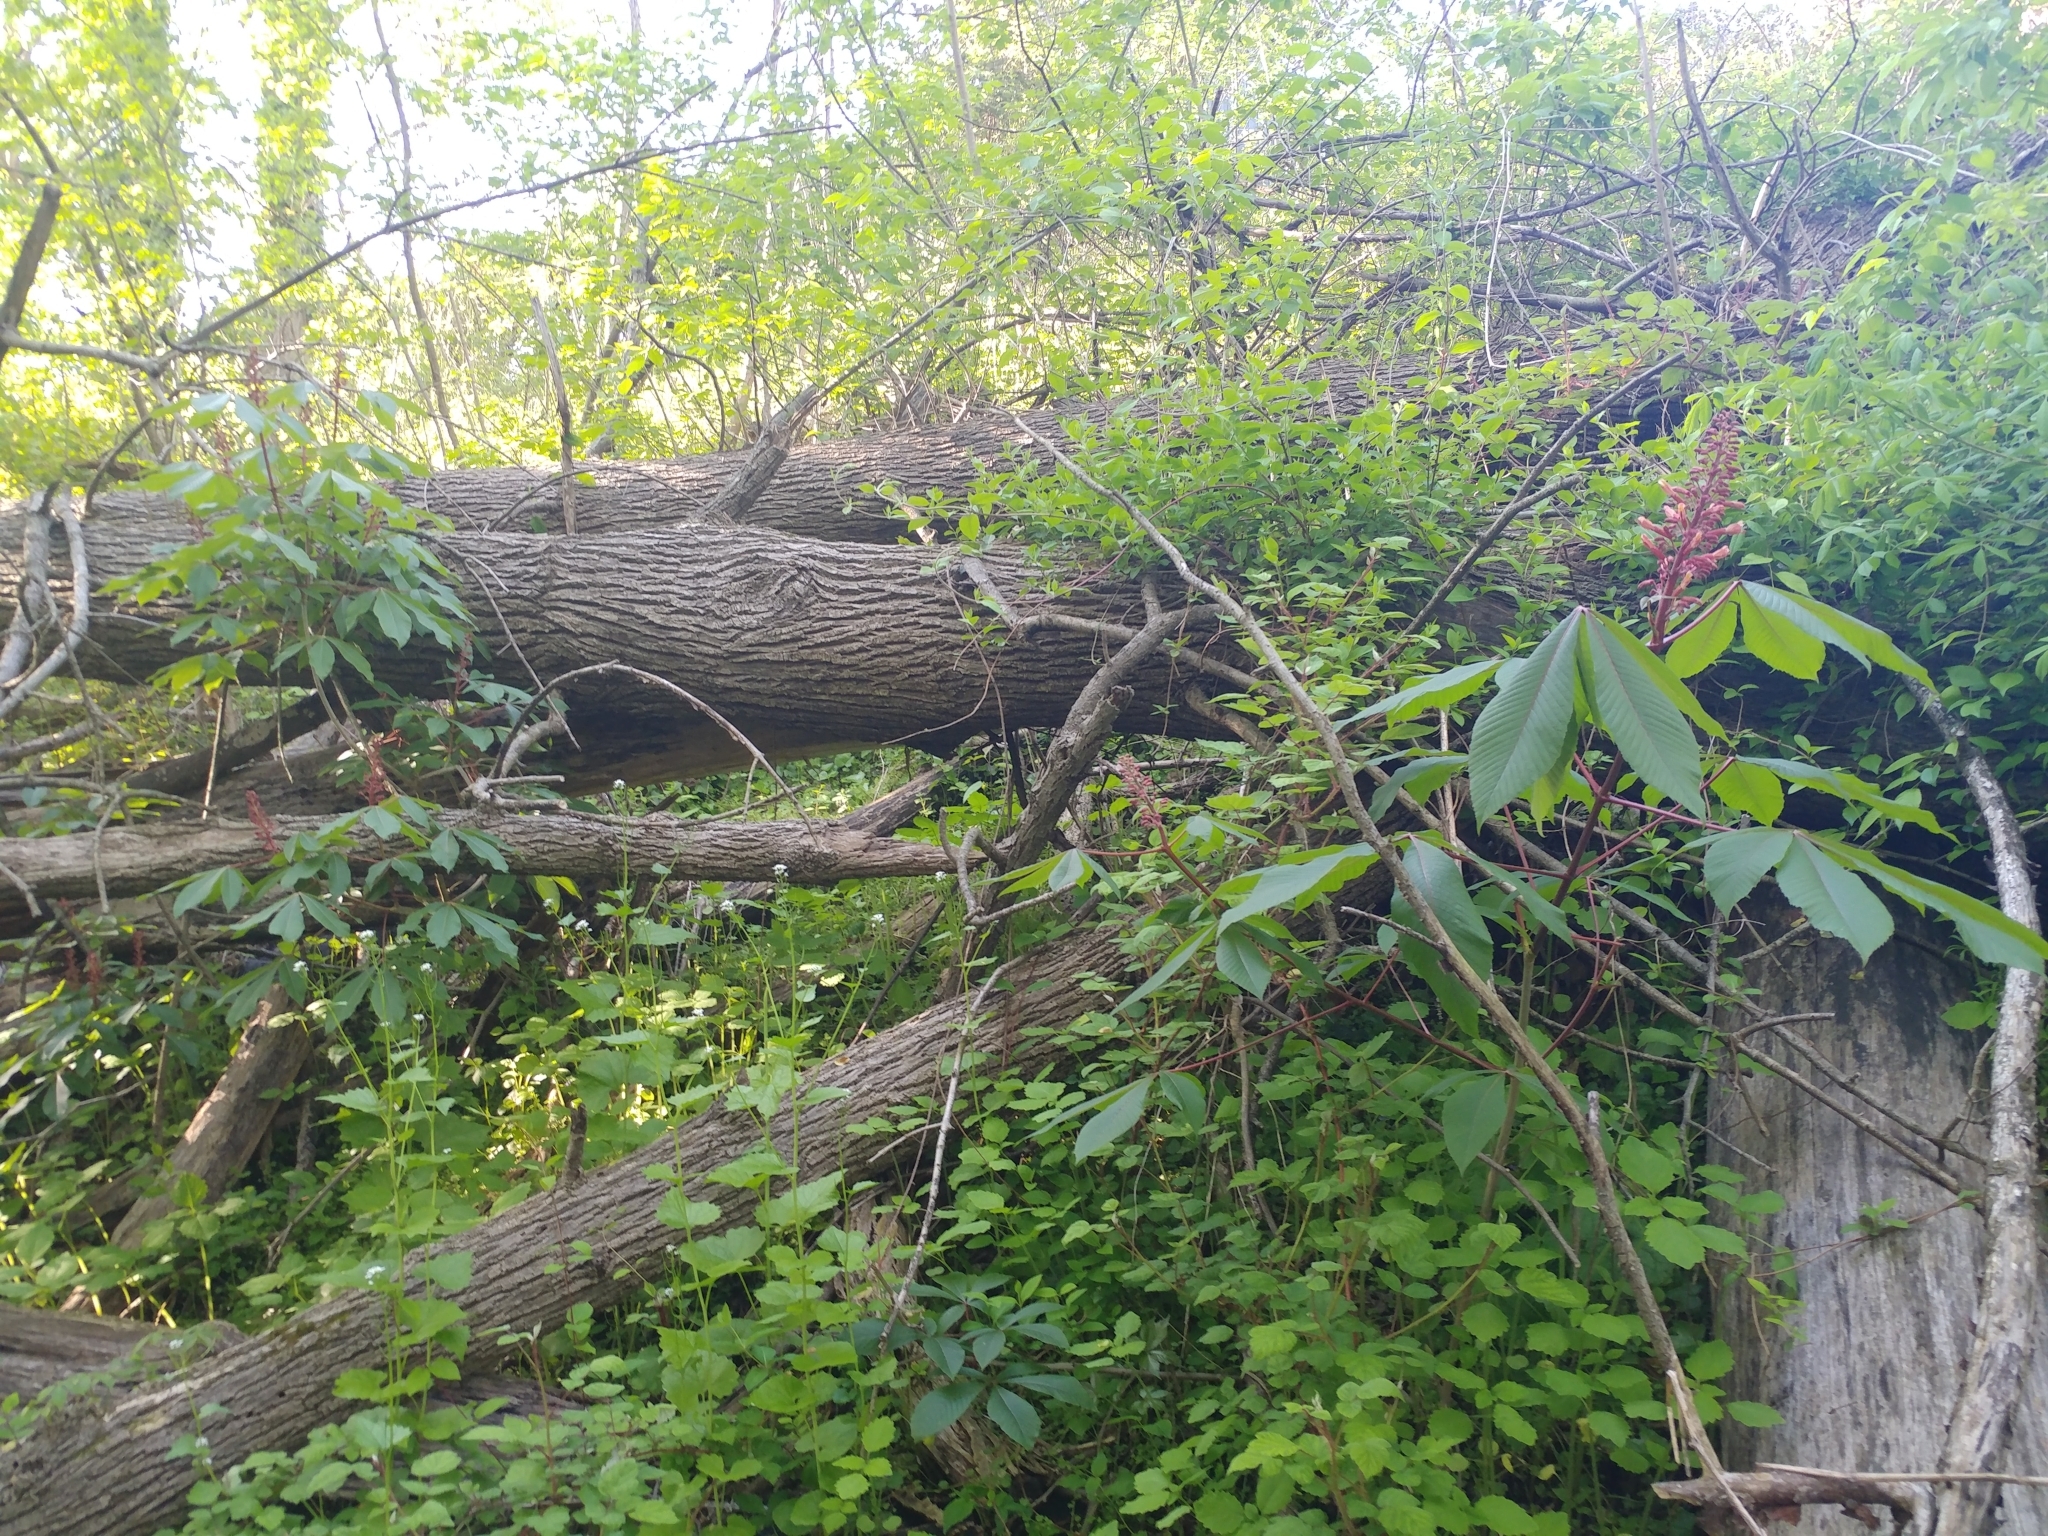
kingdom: Plantae
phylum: Tracheophyta
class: Magnoliopsida
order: Sapindales
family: Sapindaceae
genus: Aesculus
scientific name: Aesculus pavia
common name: Red buckeye
